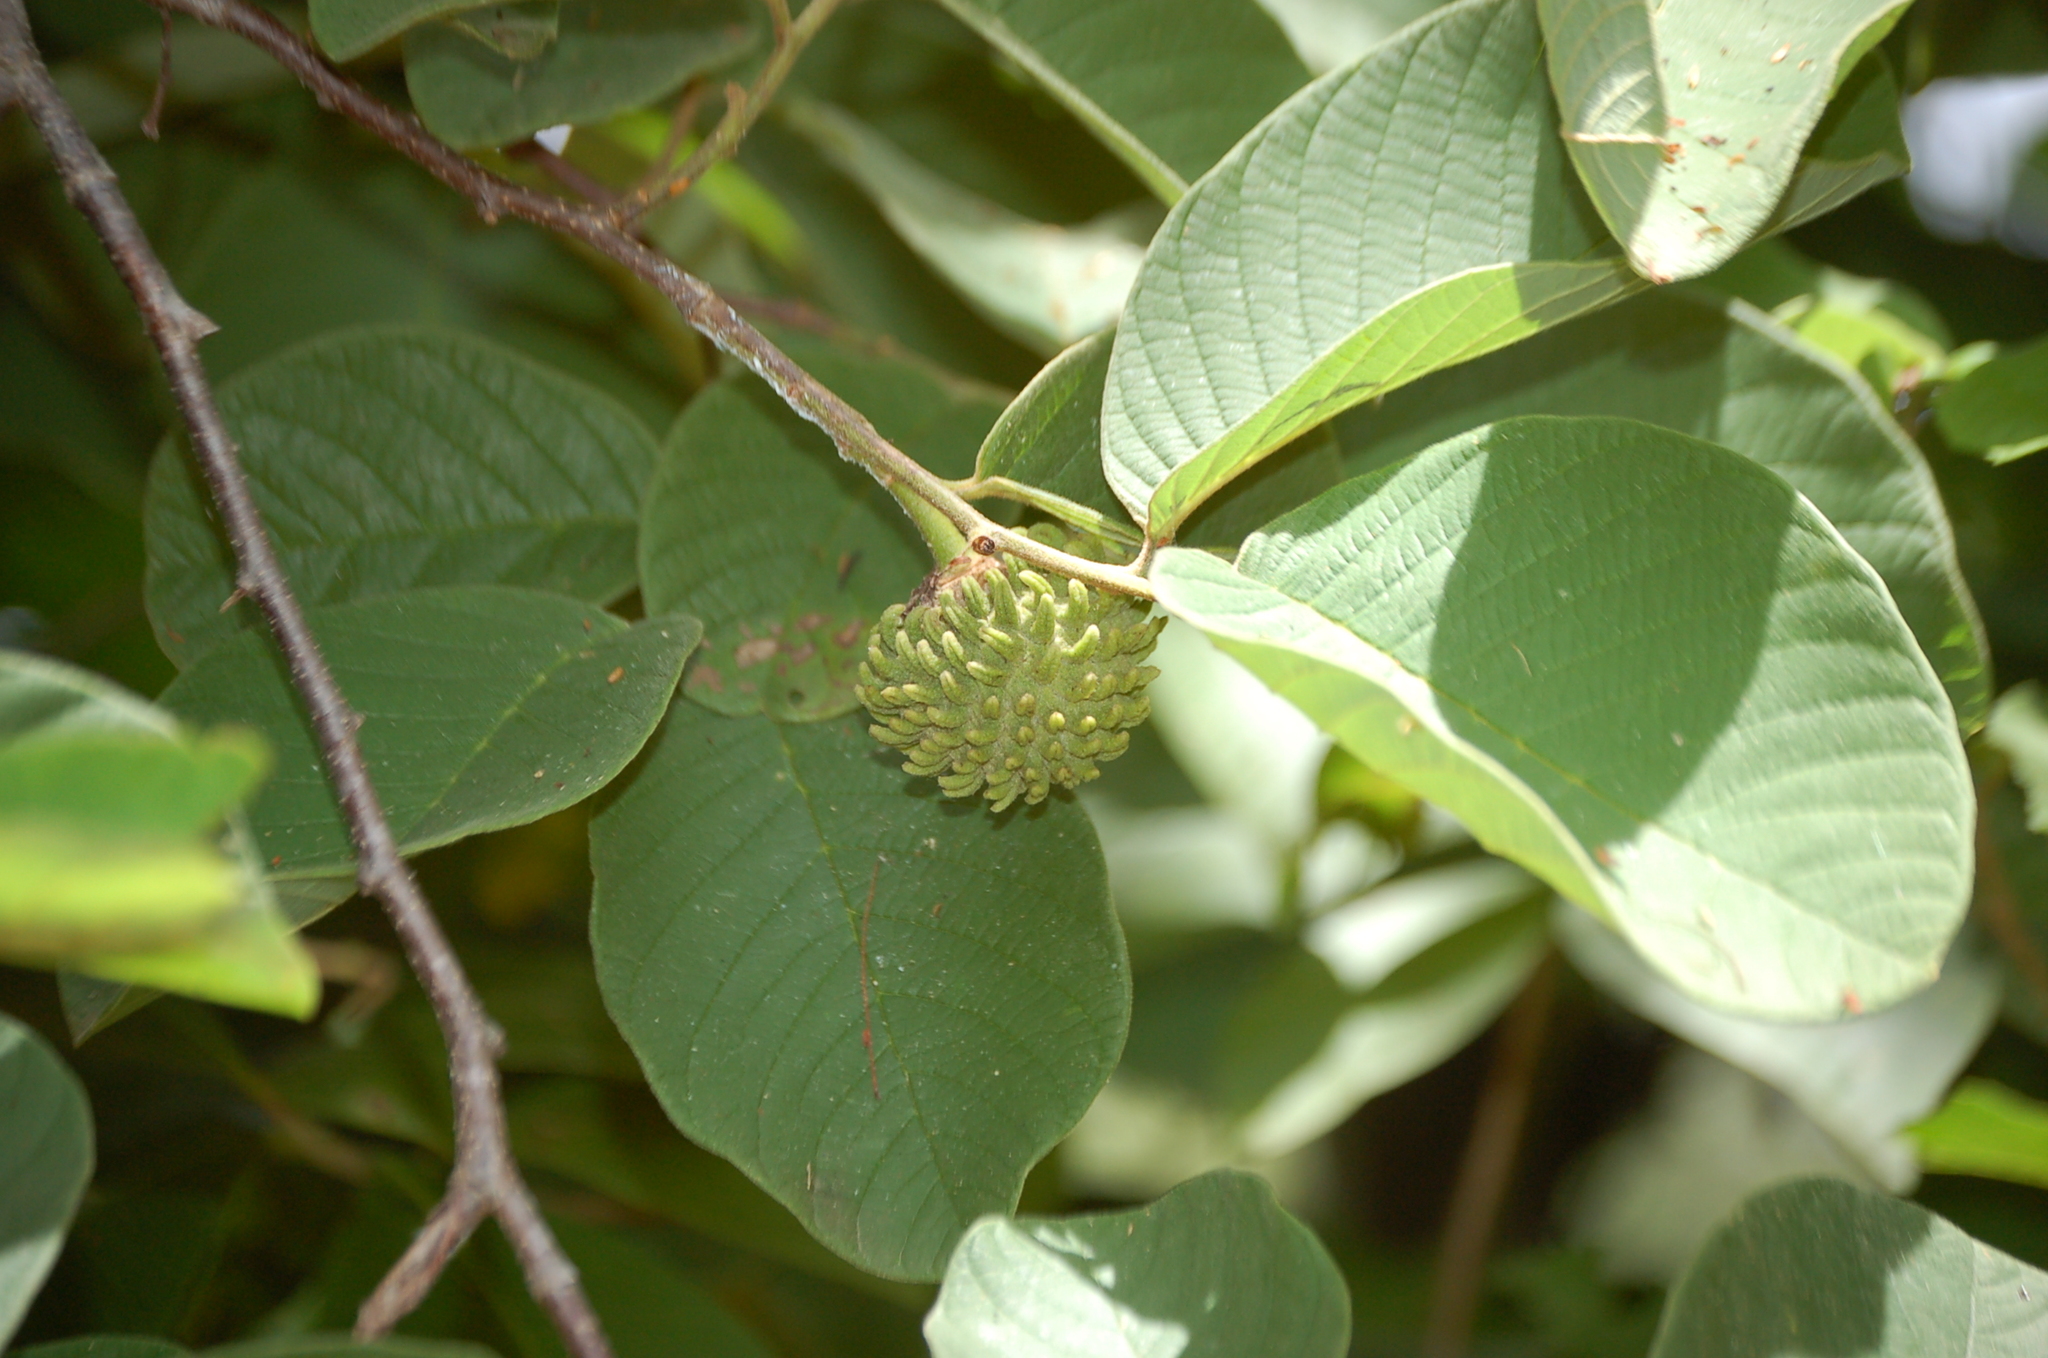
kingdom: Plantae
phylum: Tracheophyta
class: Magnoliopsida
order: Magnoliales
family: Annonaceae
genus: Annona
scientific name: Annona holosericea
